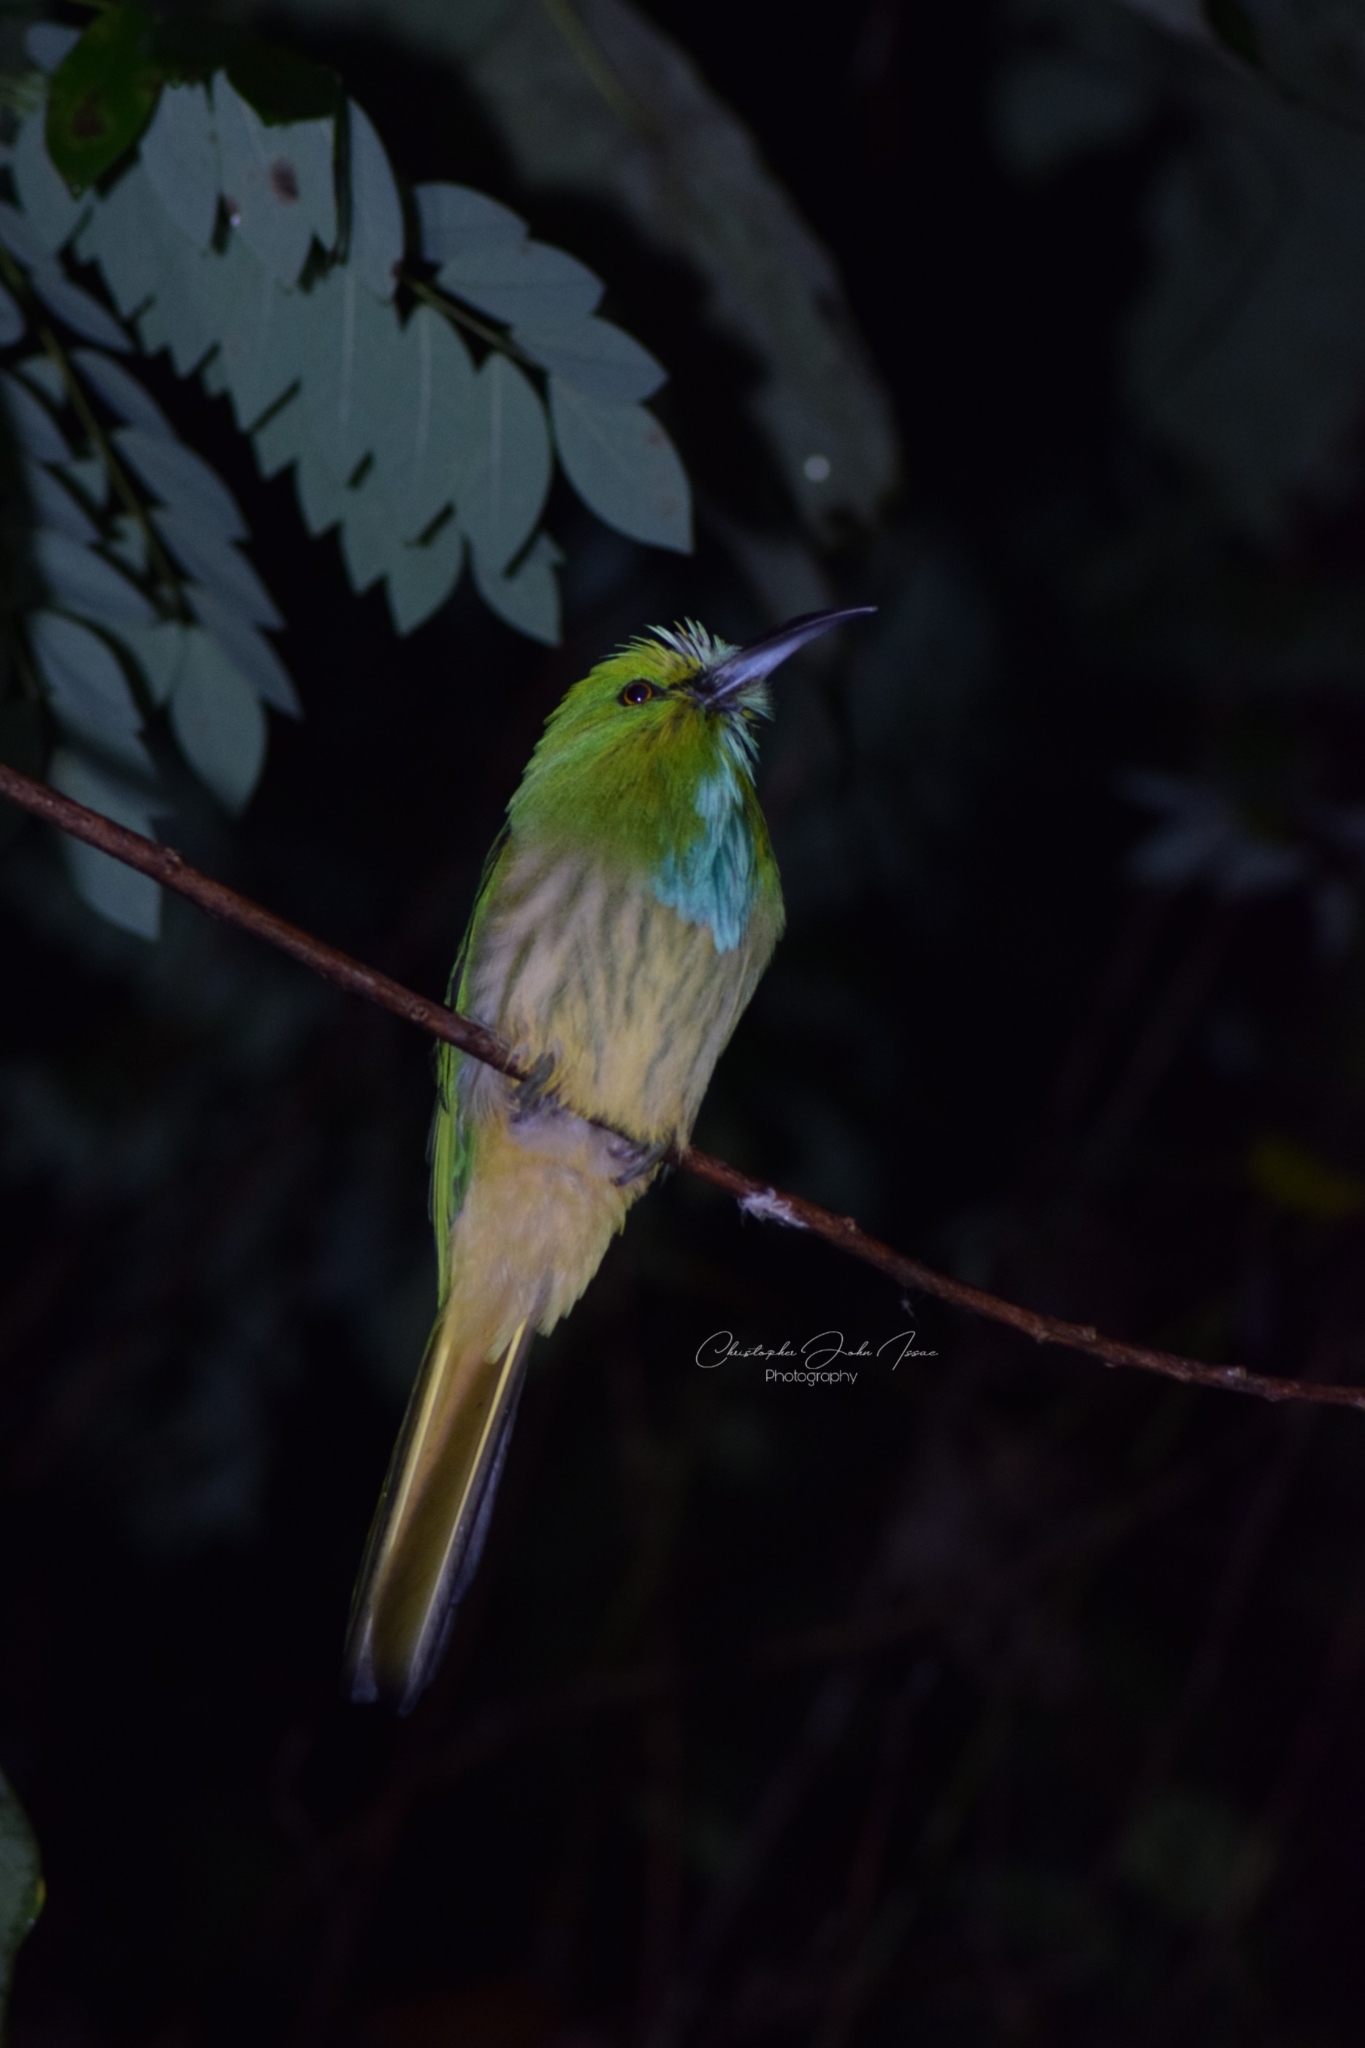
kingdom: Animalia
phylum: Chordata
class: Aves
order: Coraciiformes
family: Meropidae
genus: Nyctyornis
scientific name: Nyctyornis athertoni
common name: Blue-bearded bee-eater
